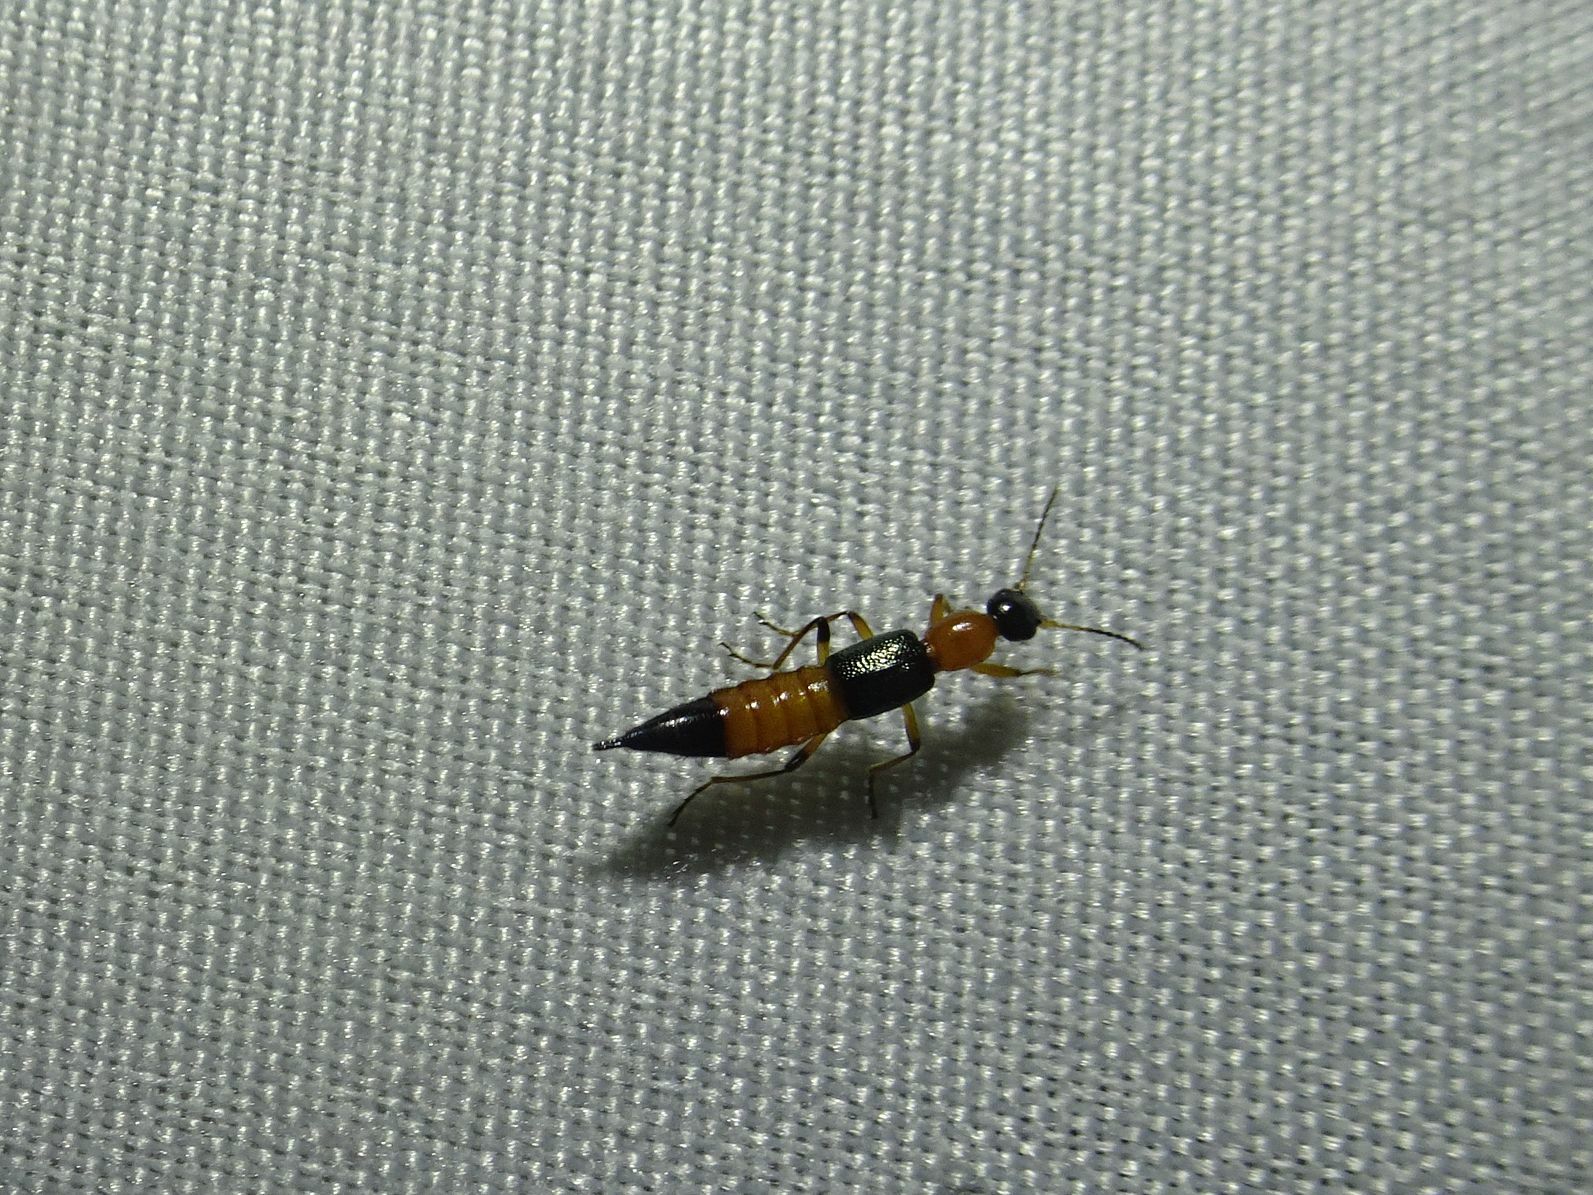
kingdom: Animalia
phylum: Arthropoda
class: Insecta
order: Coleoptera
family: Staphylinidae
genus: Paederus
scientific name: Paederus fuscipes
